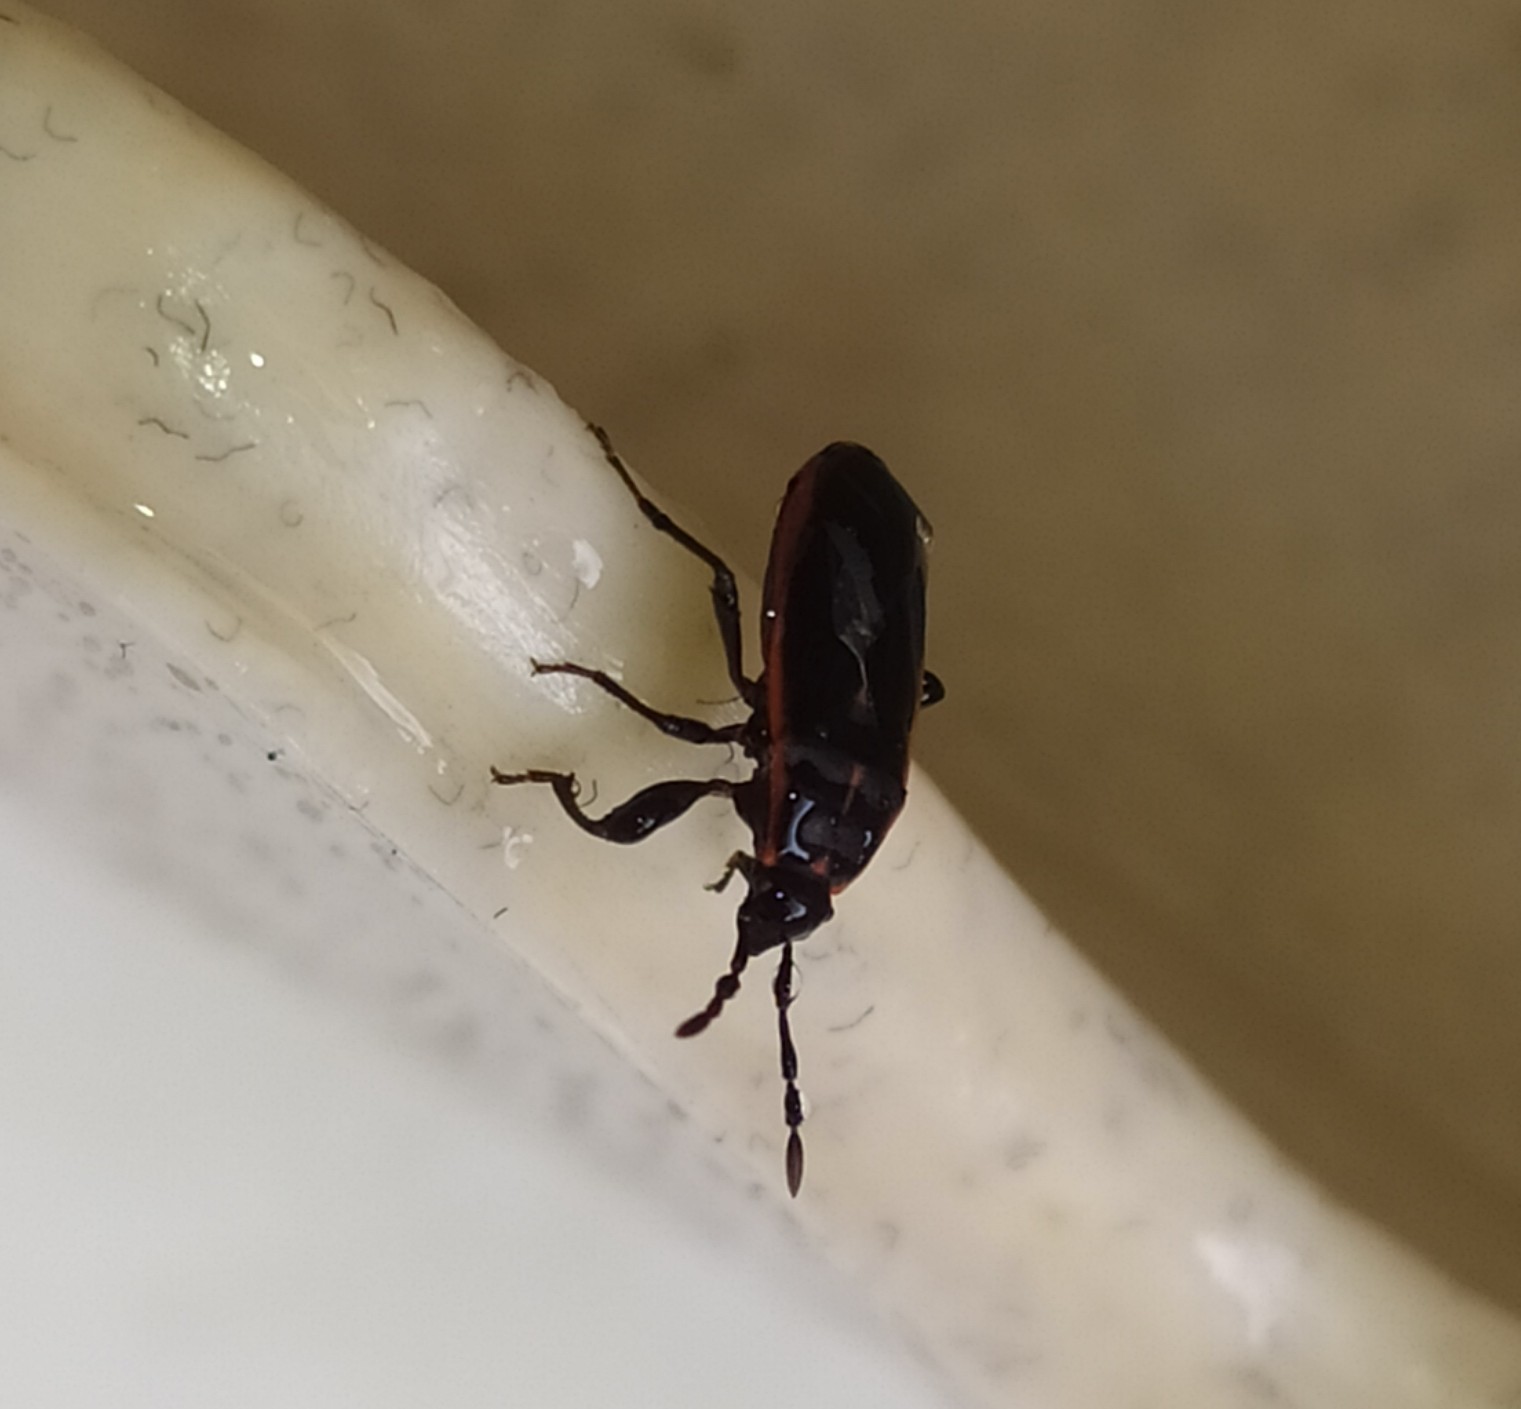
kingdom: Animalia
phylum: Arthropoda
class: Insecta
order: Hemiptera
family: Pyrrhocoridae
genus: Scantius
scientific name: Scantius forsteri
